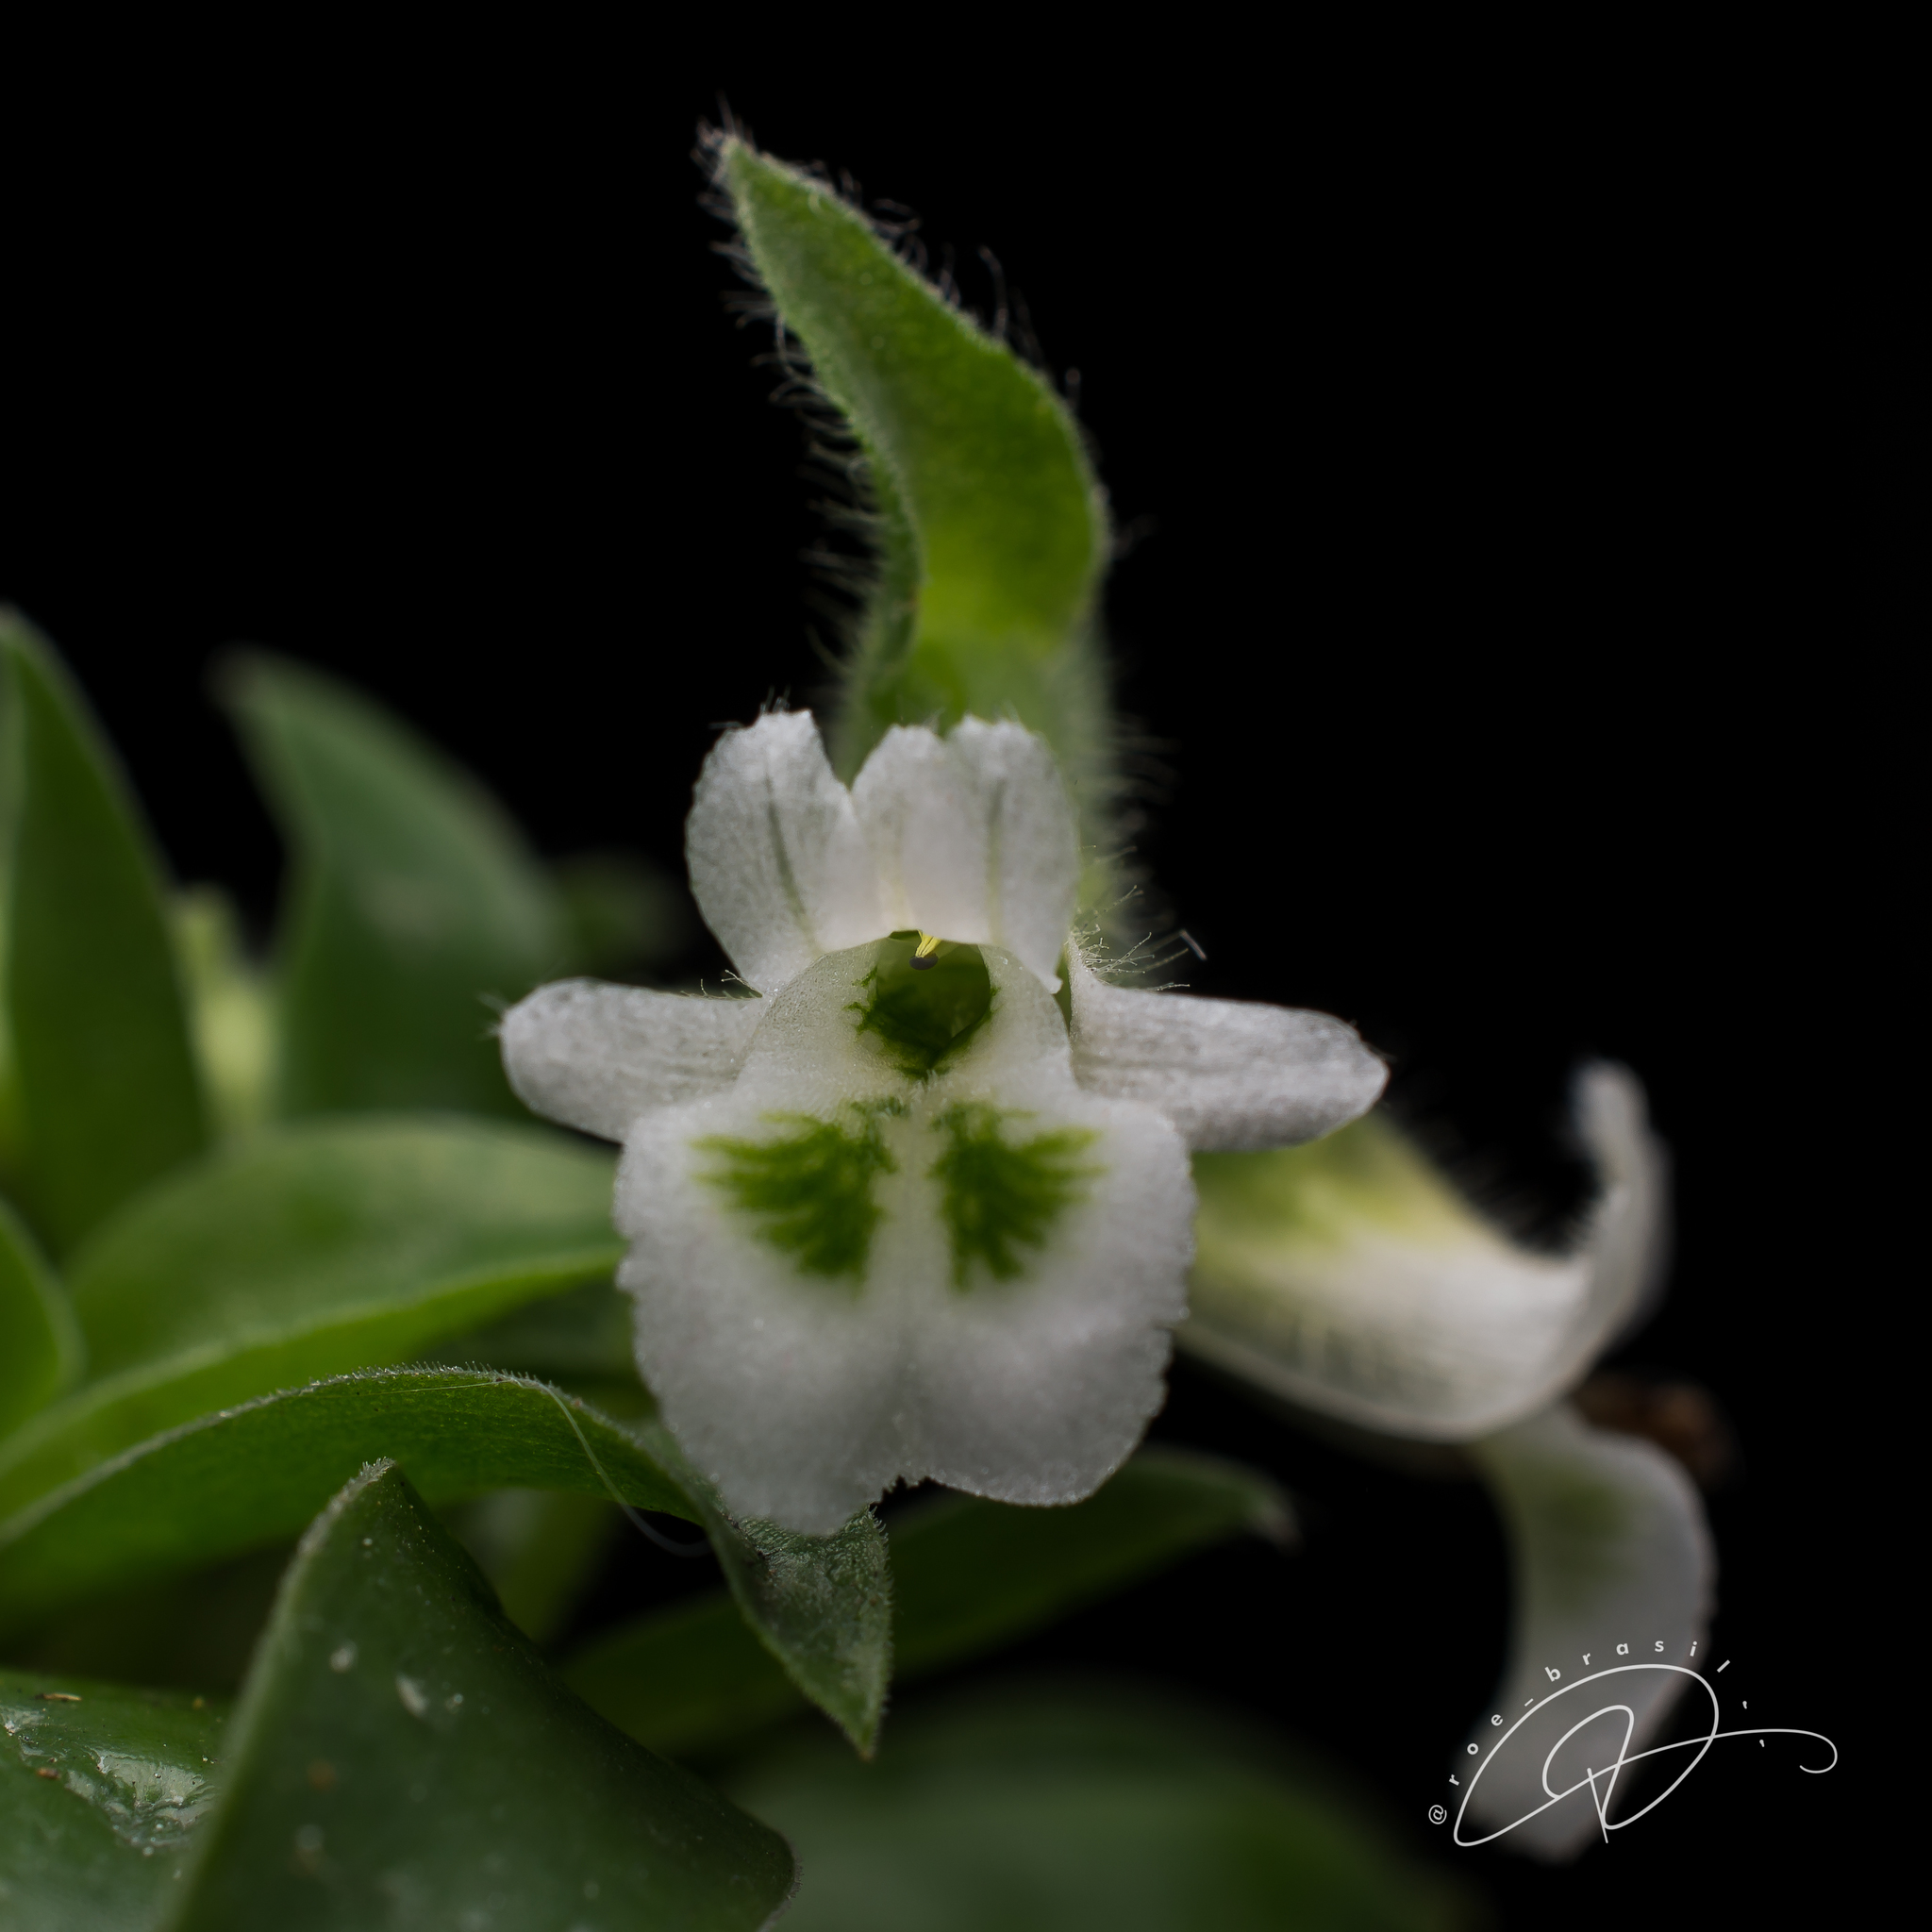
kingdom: Plantae
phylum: Tracheophyta
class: Liliopsida
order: Asparagales
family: Orchidaceae
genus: Lankesterella
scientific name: Lankesterella ceracifolia
